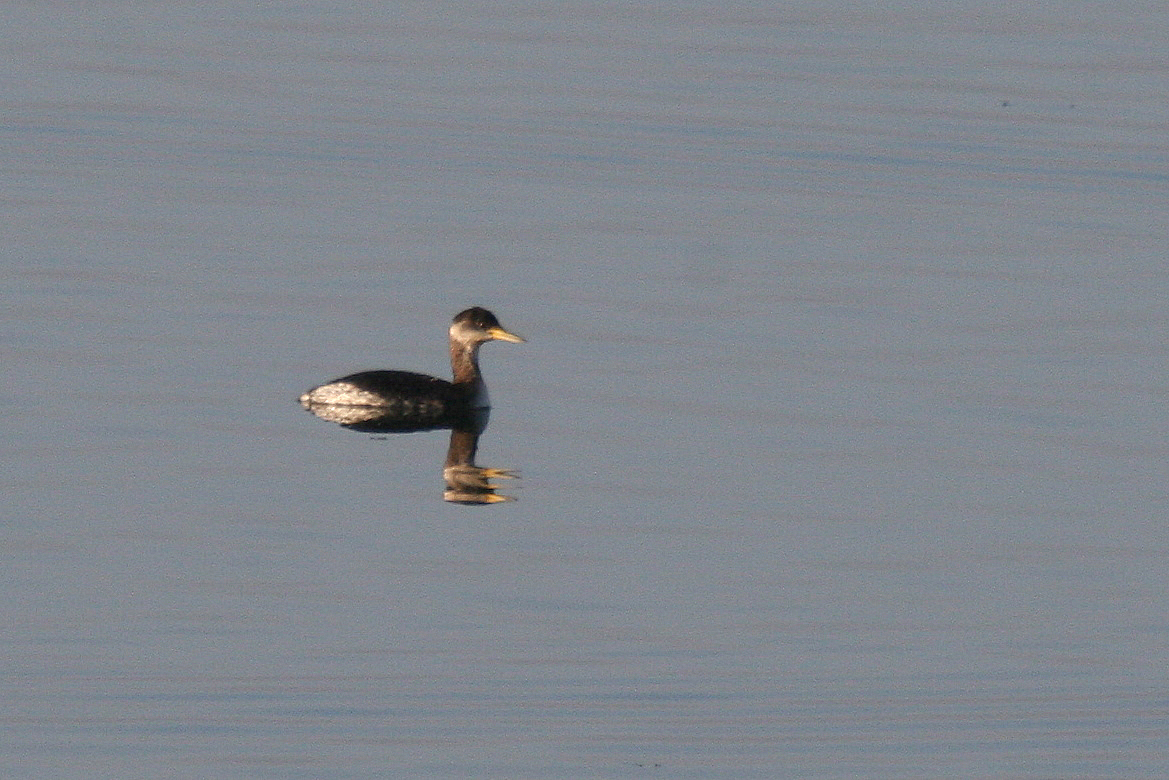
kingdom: Animalia
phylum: Chordata
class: Aves
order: Podicipediformes
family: Podicipedidae
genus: Podiceps
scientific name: Podiceps grisegena
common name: Red-necked grebe
